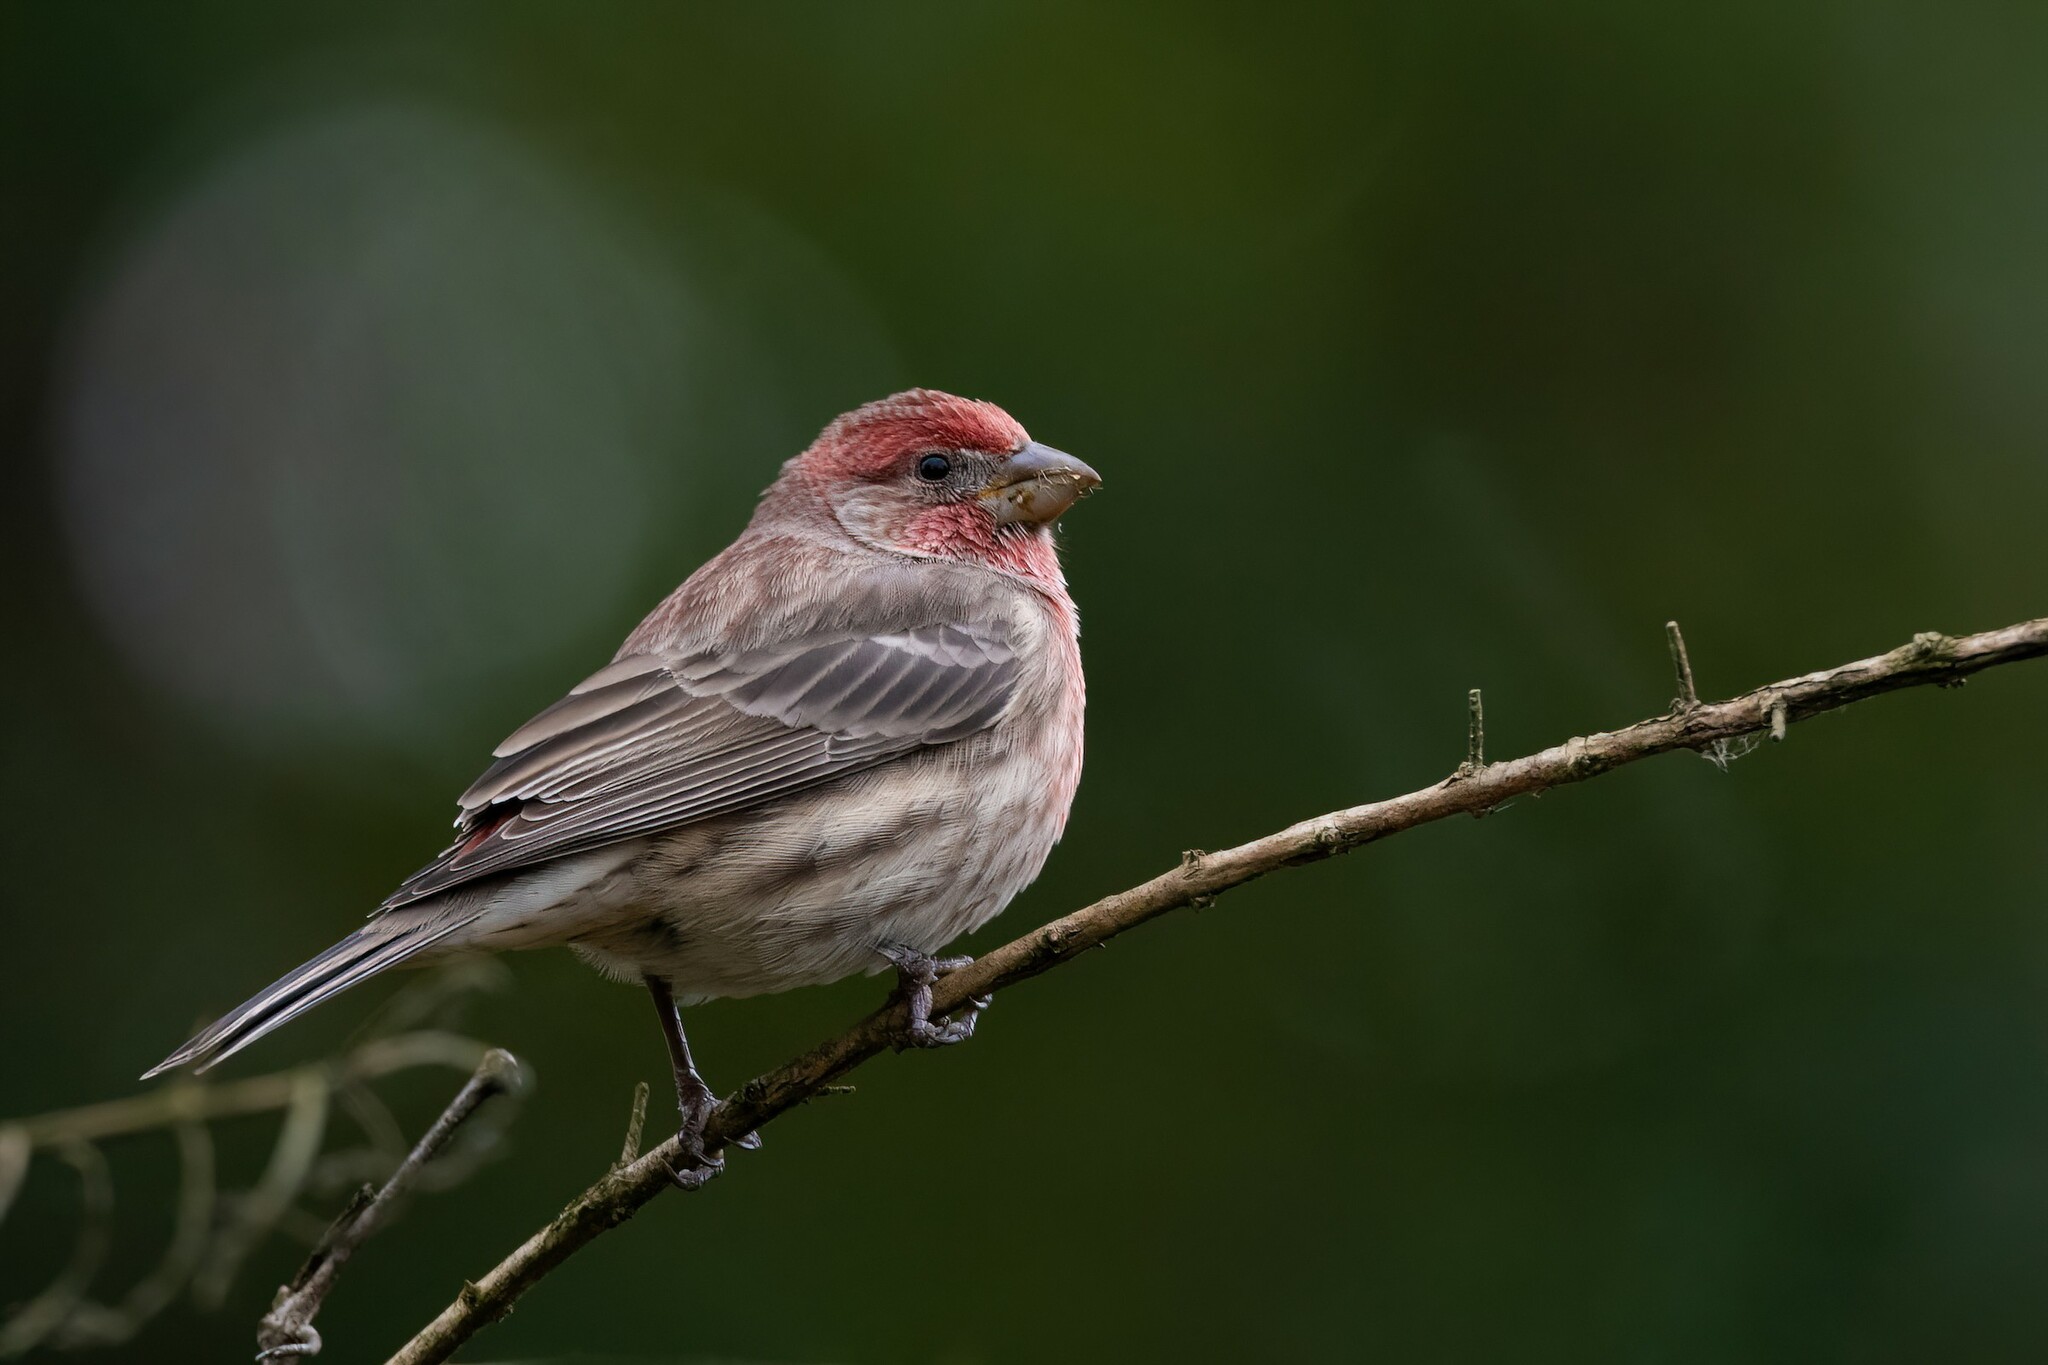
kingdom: Animalia
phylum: Chordata
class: Aves
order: Passeriformes
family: Fringillidae
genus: Haemorhous
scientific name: Haemorhous mexicanus
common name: House finch
